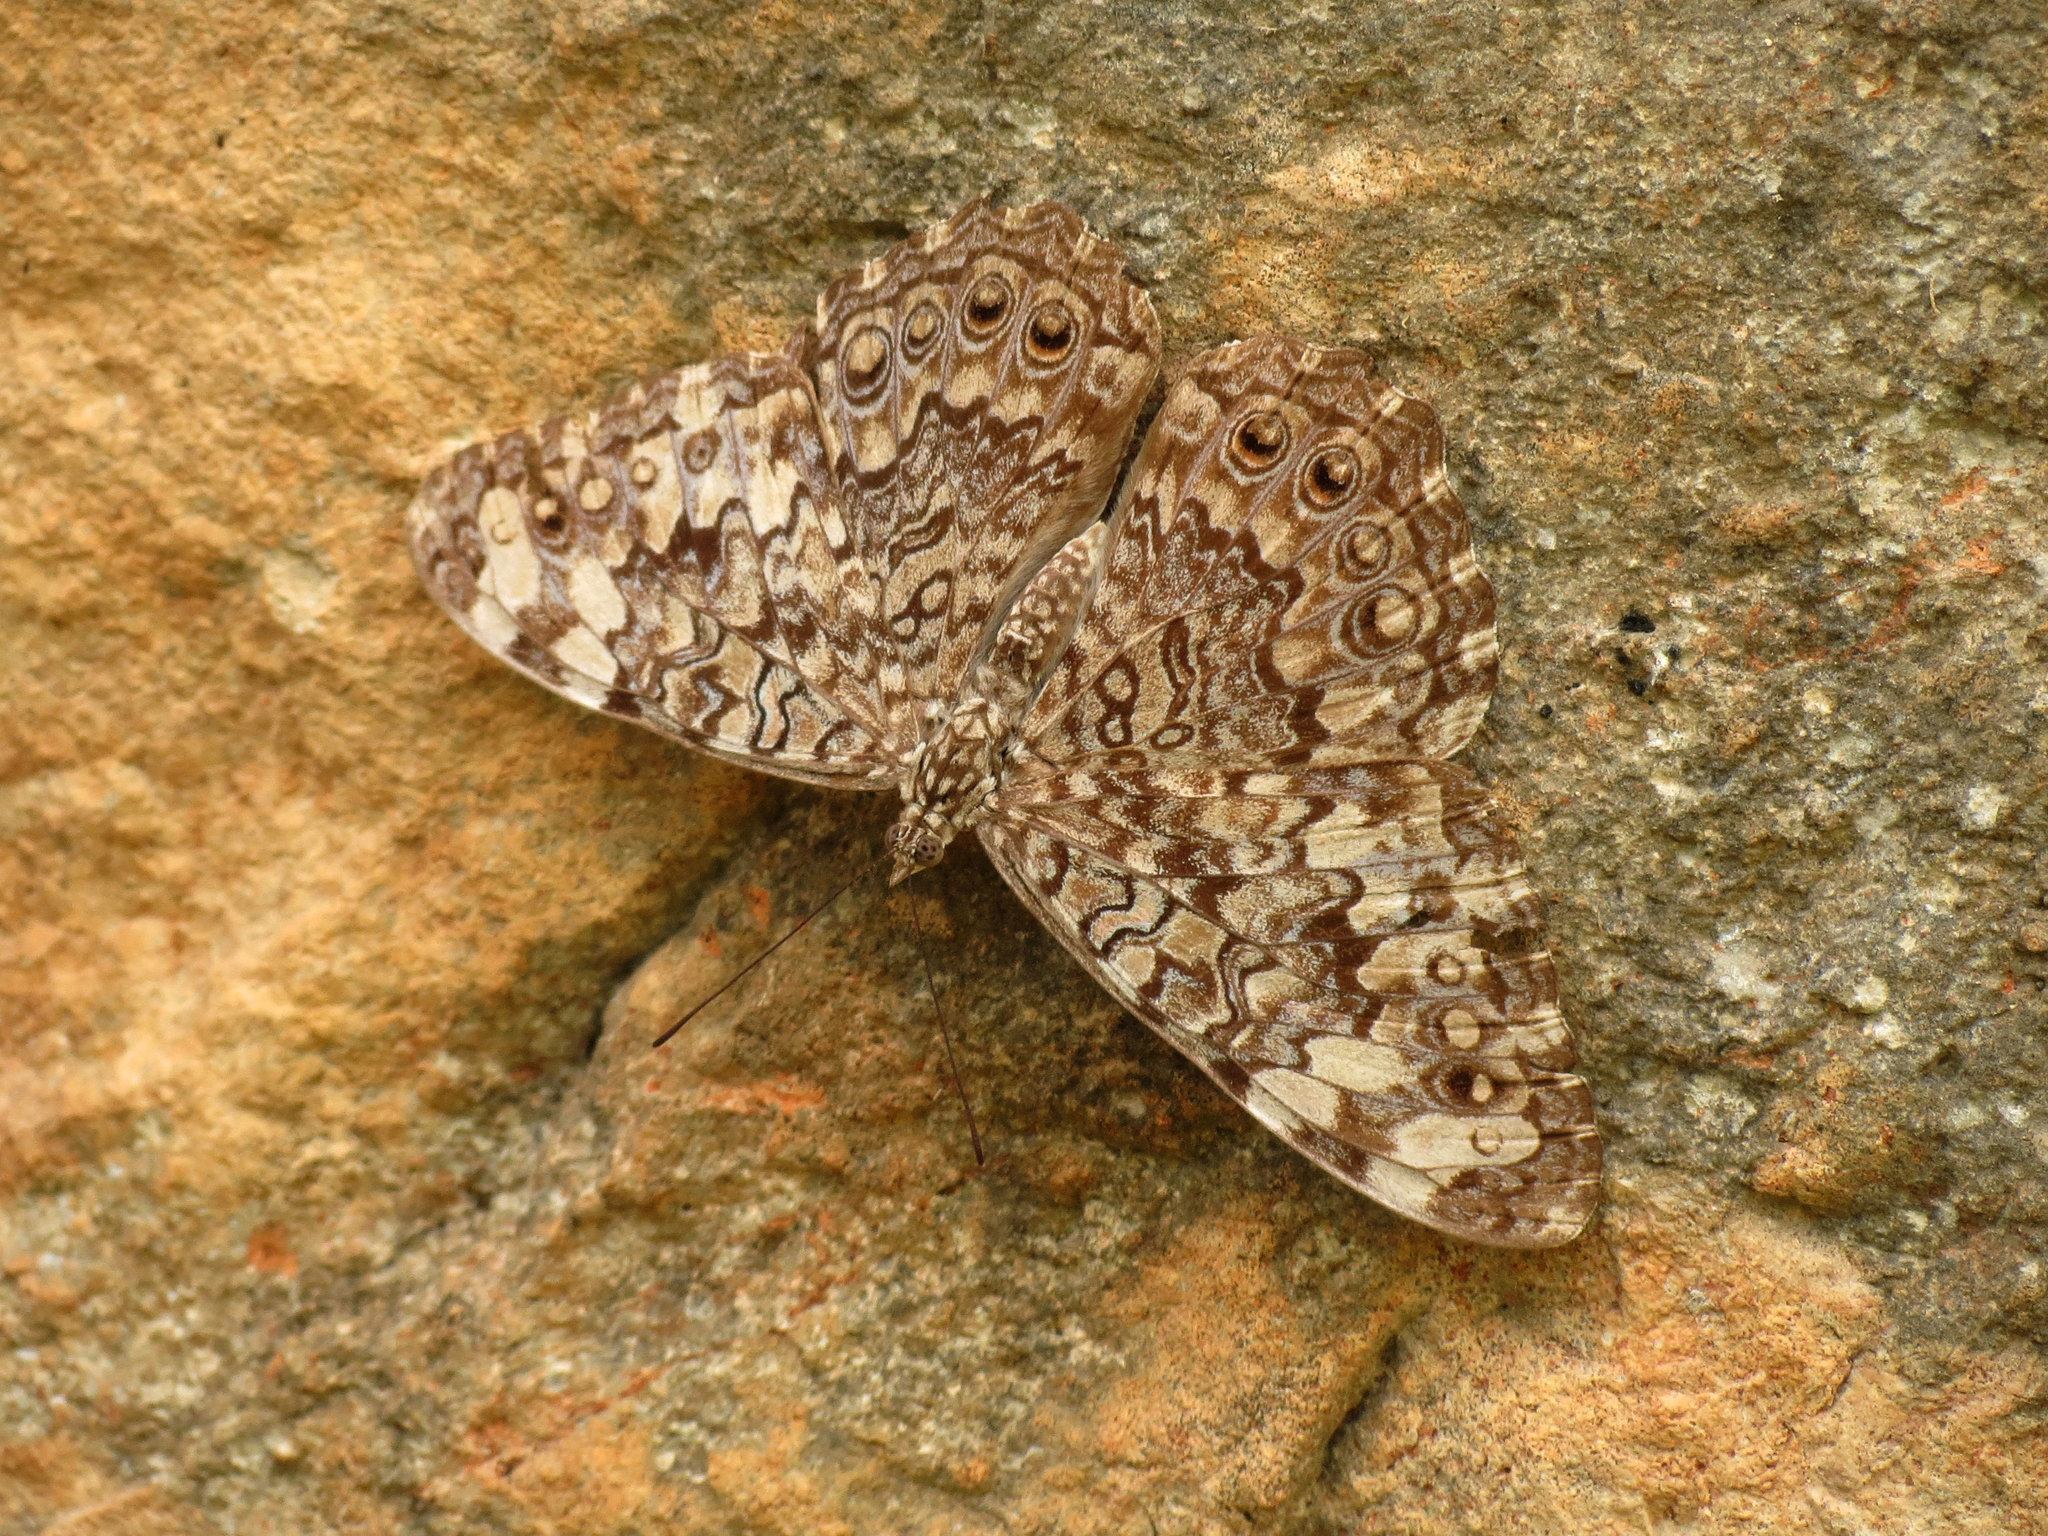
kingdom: Animalia
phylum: Arthropoda
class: Insecta
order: Lepidoptera
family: Nymphalidae
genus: Hamadryas
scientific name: Hamadryas februa
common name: Gray cracker
